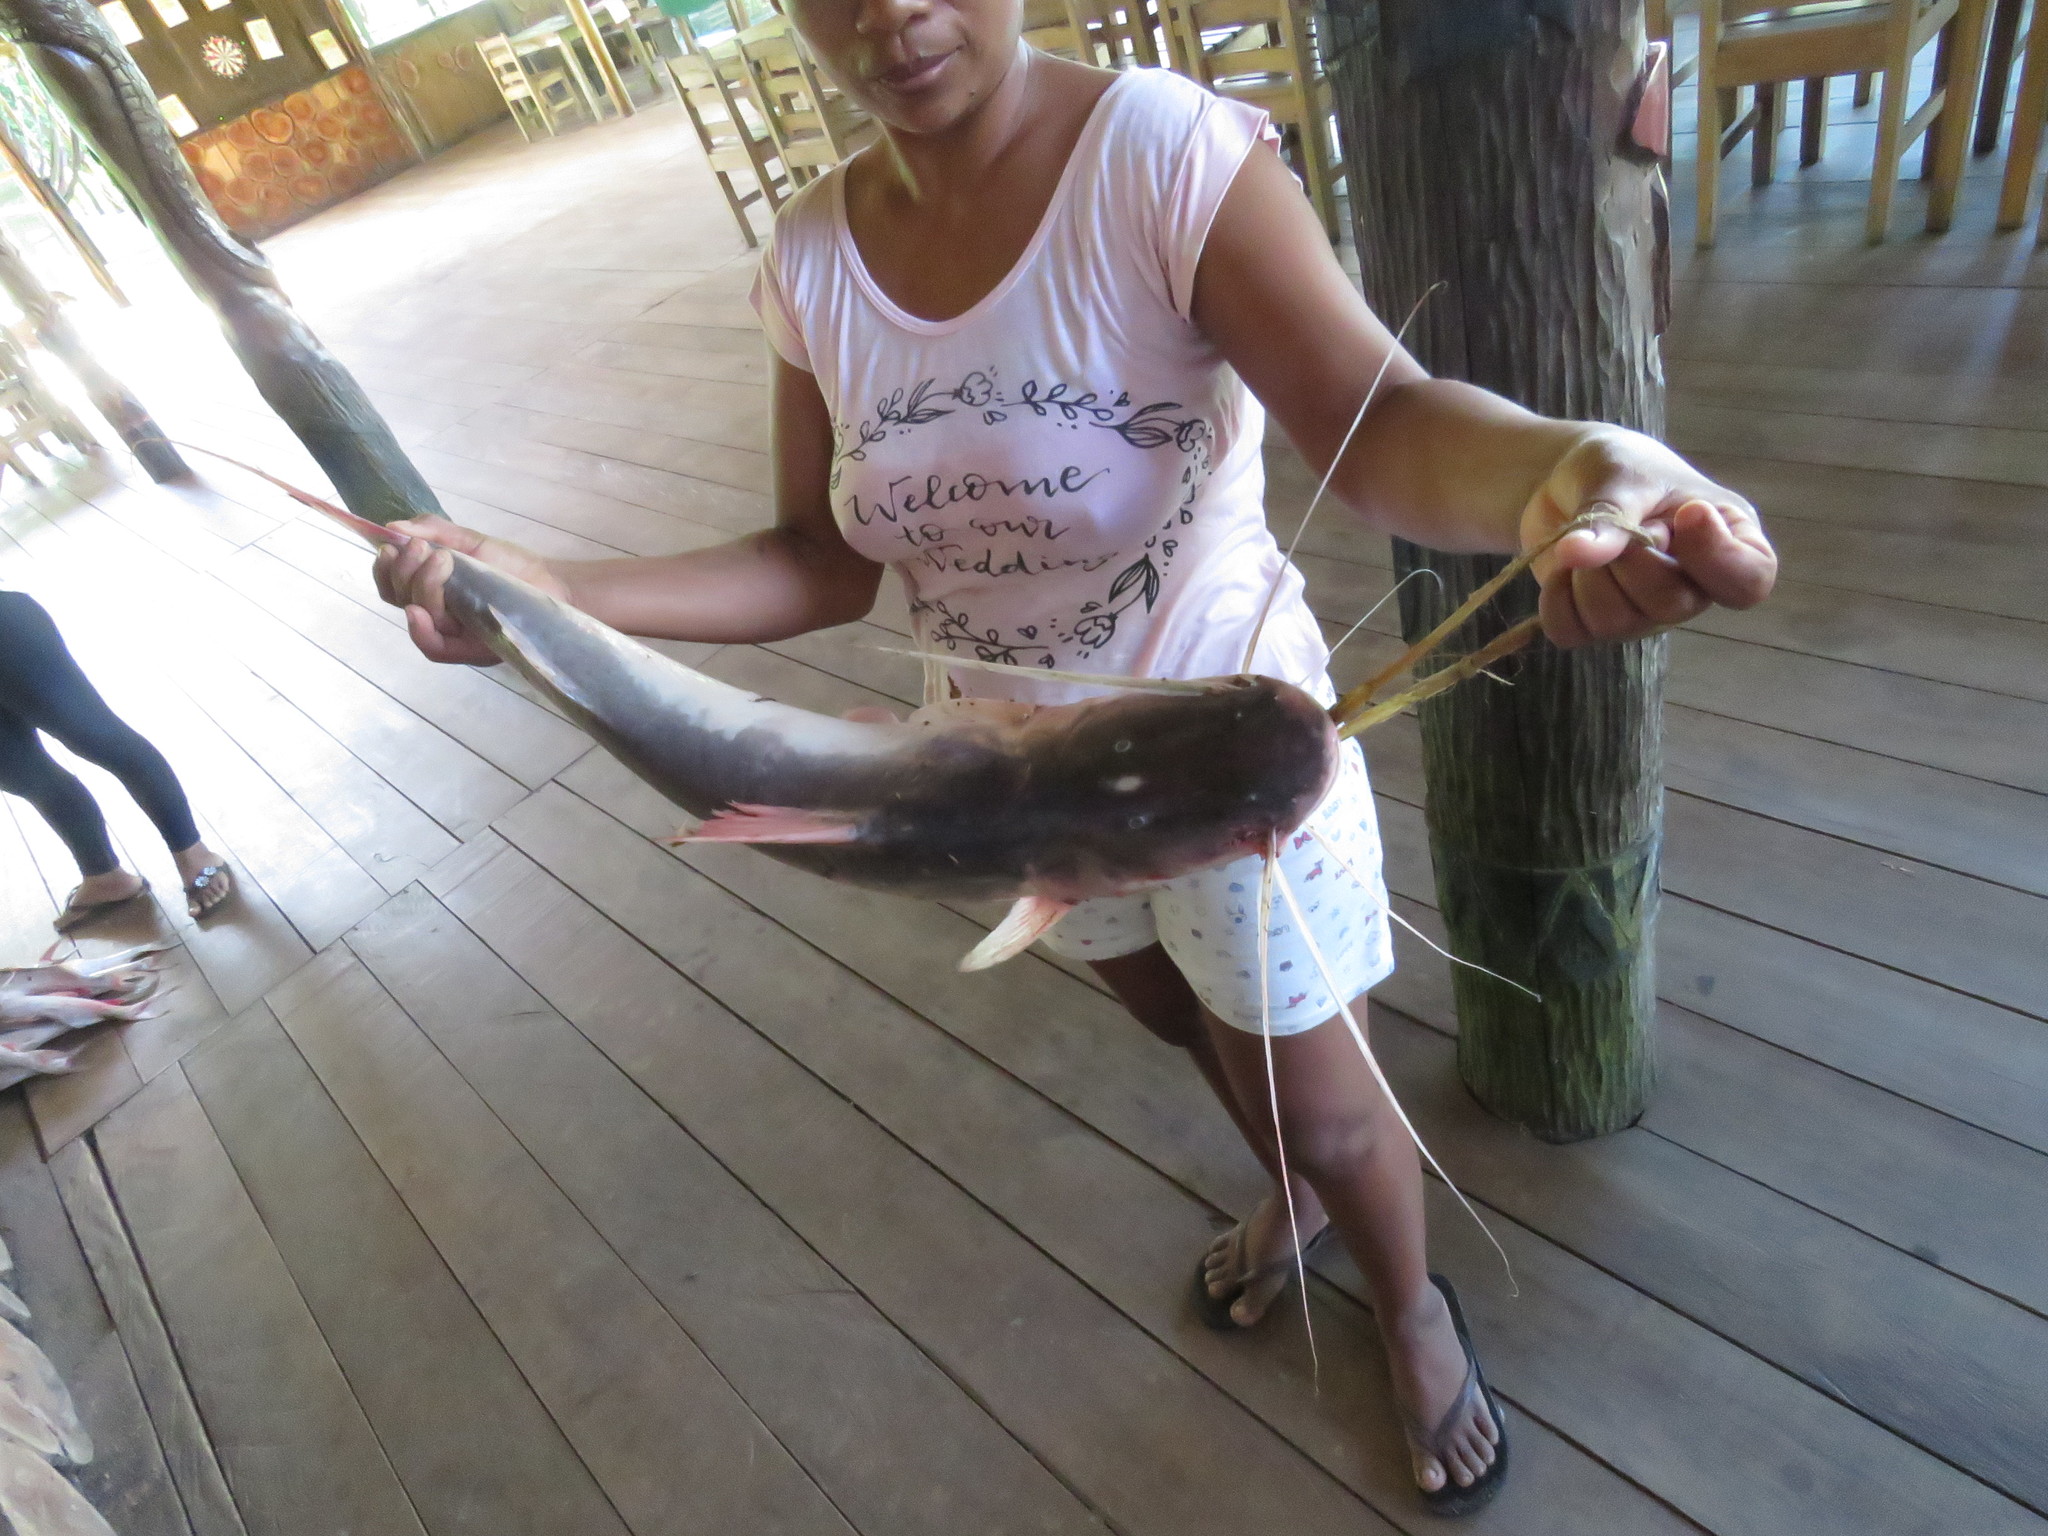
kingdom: Animalia
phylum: Chordata
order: Siluriformes
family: Pimelodidae
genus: Brachyplatystoma
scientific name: Brachyplatystoma platynemum
